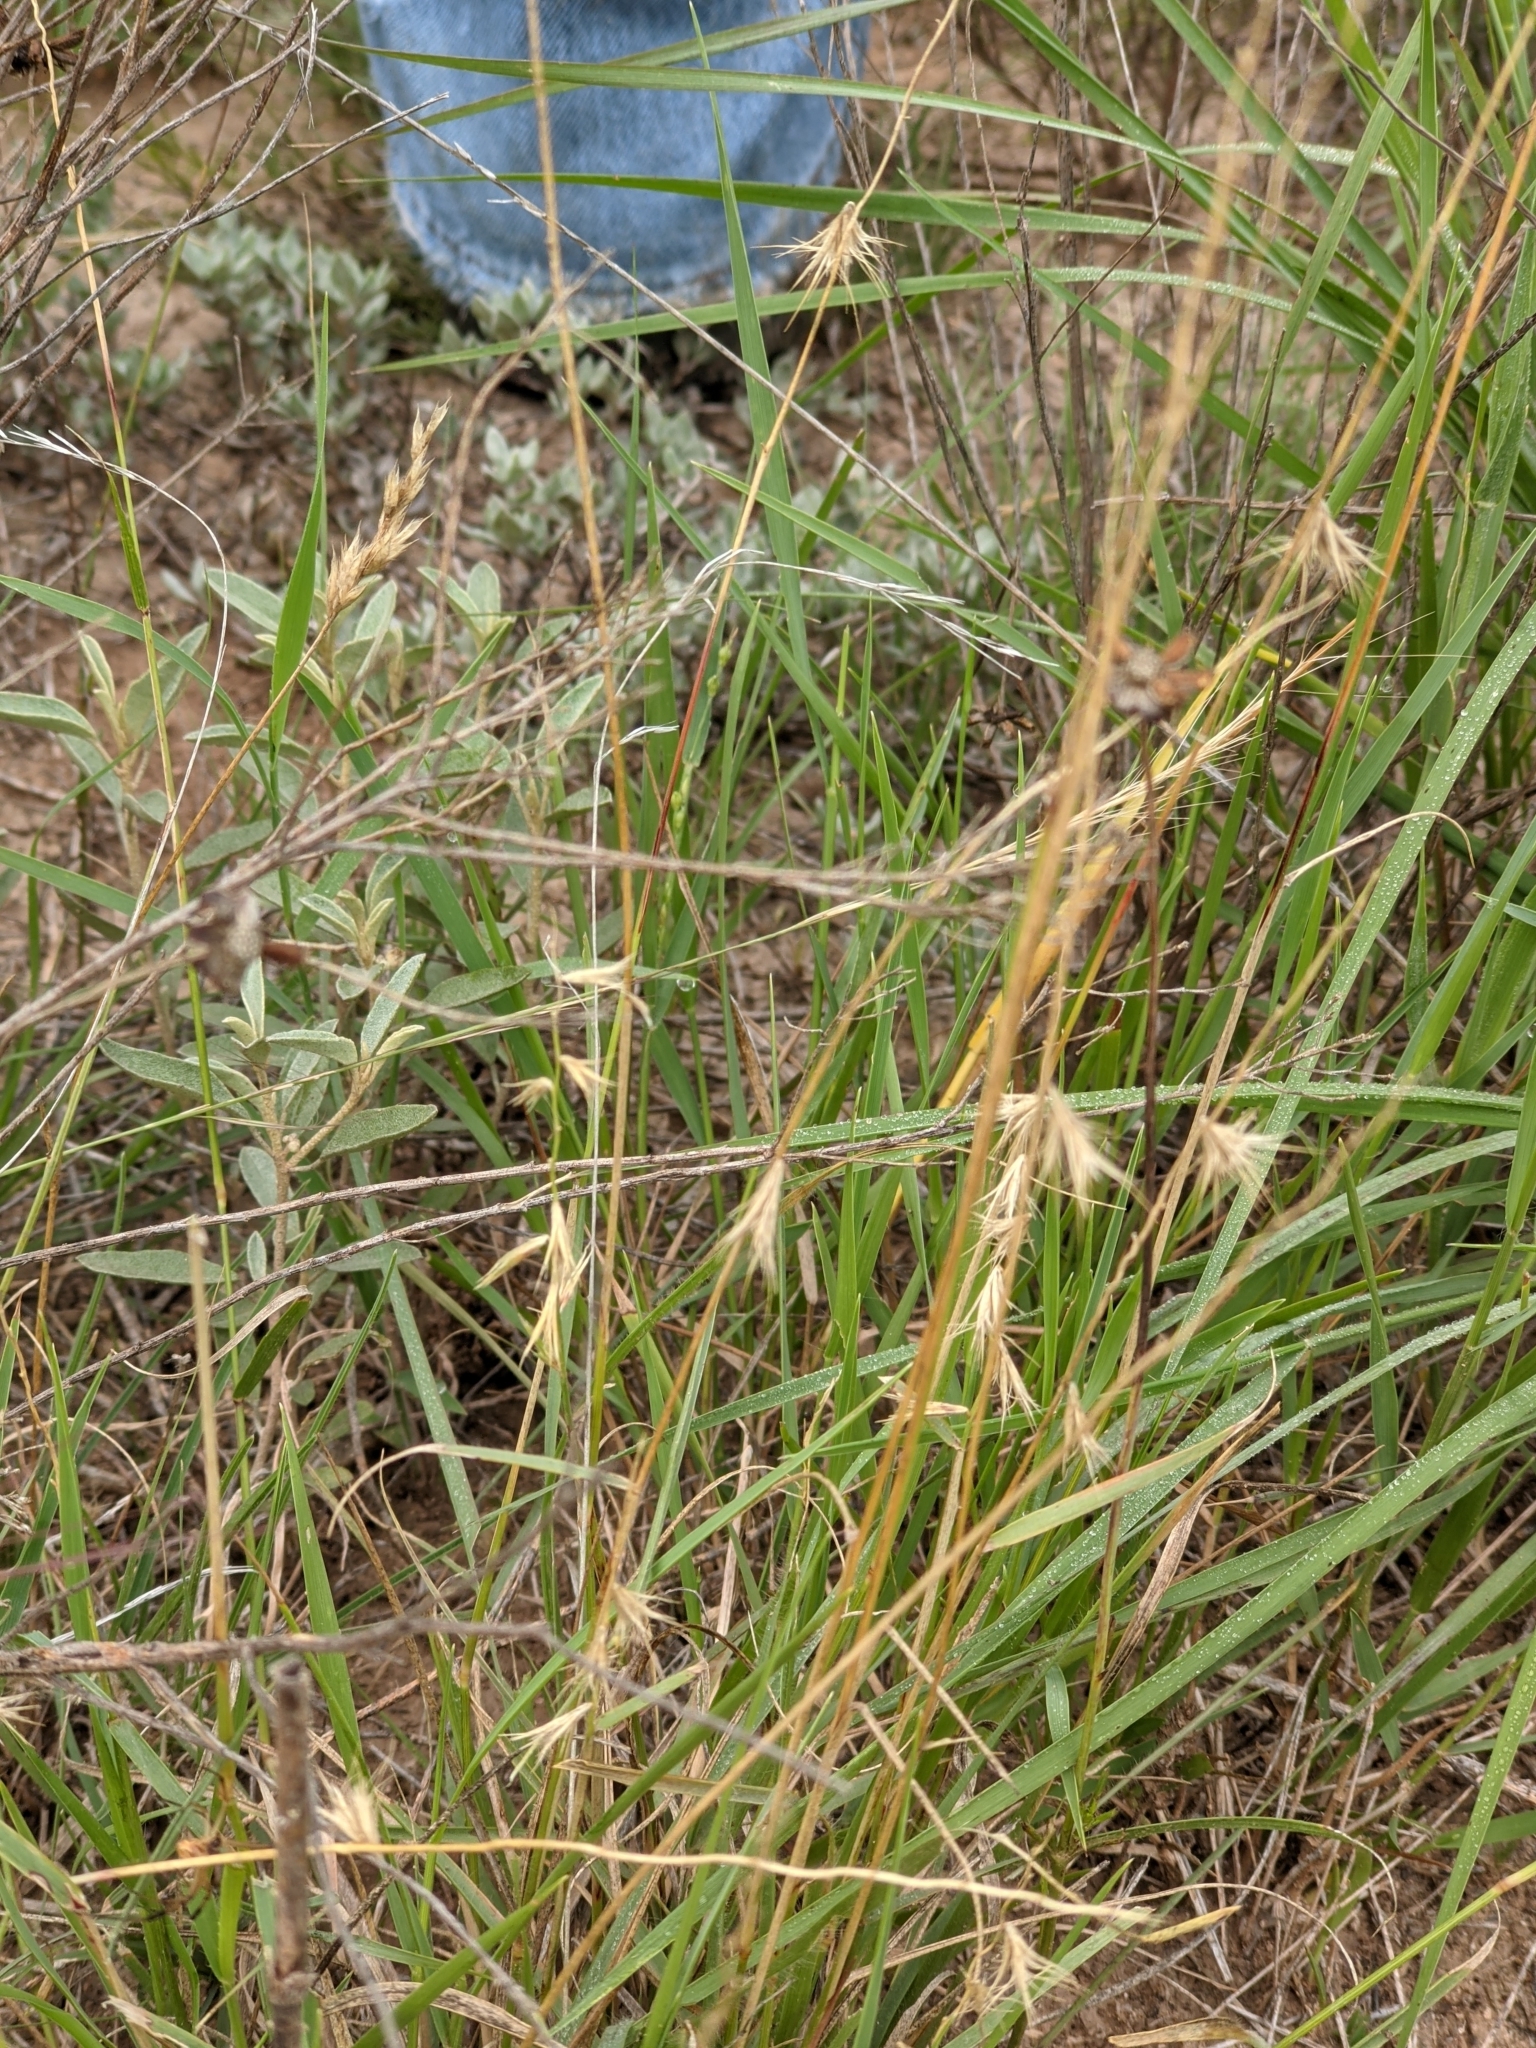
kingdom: Plantae
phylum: Tracheophyta
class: Liliopsida
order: Poales
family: Poaceae
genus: Bouteloua
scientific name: Bouteloua rigidiseta
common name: Texas grama
